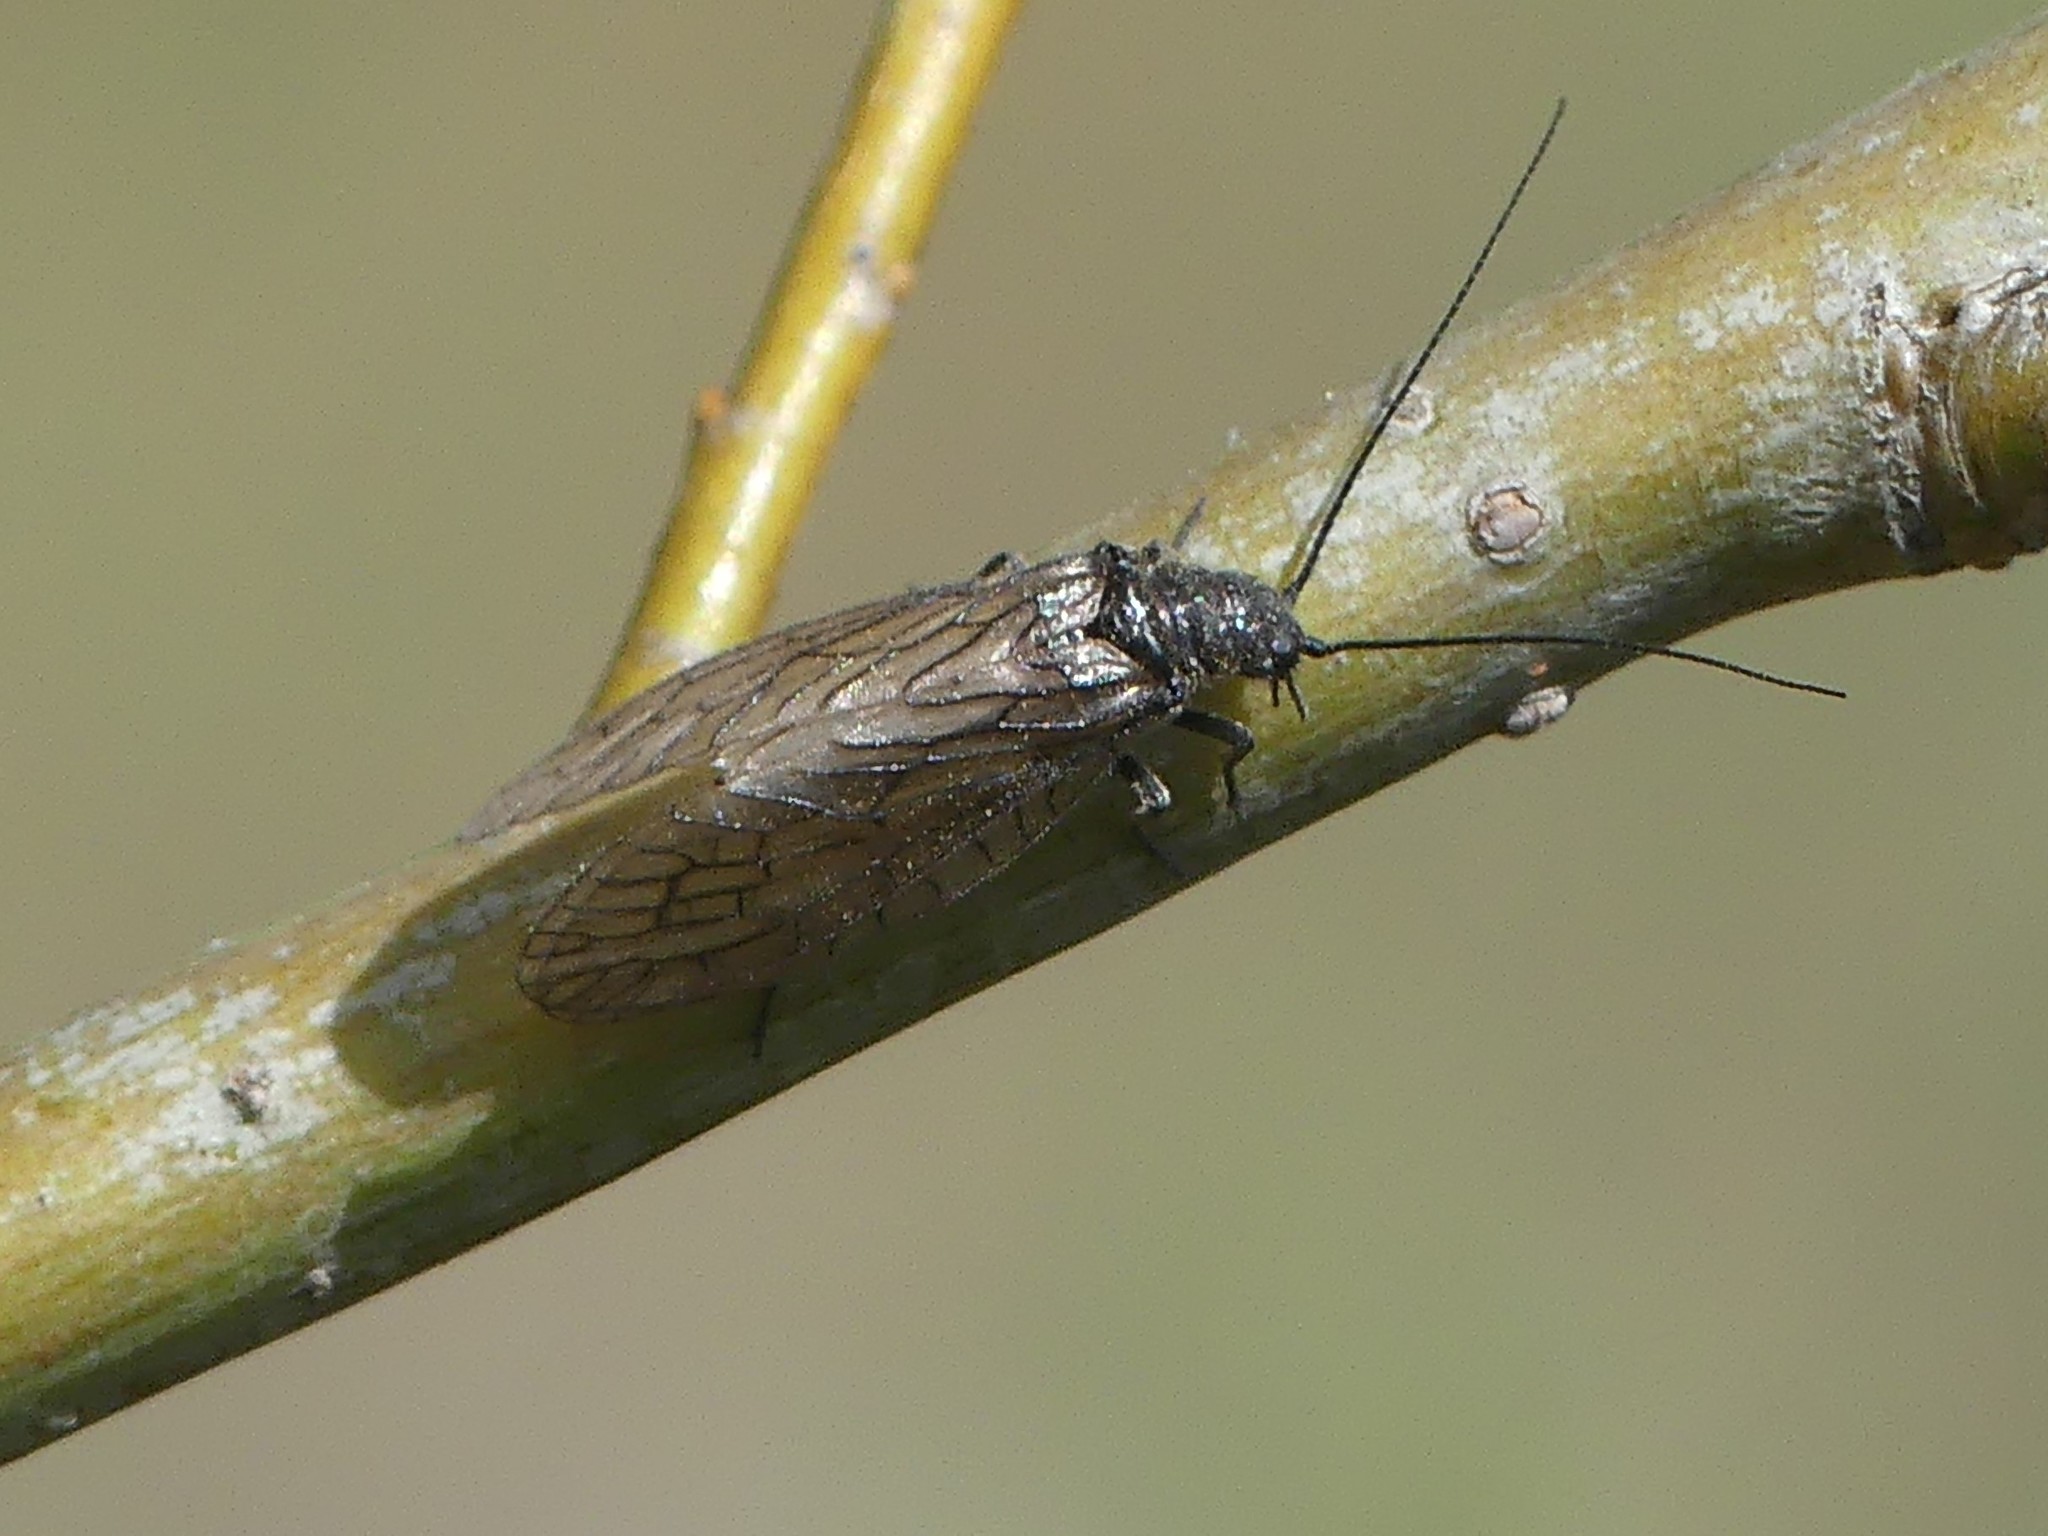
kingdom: Animalia
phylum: Arthropoda
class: Insecta
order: Megaloptera
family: Sialidae
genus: Sialis
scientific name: Sialis
